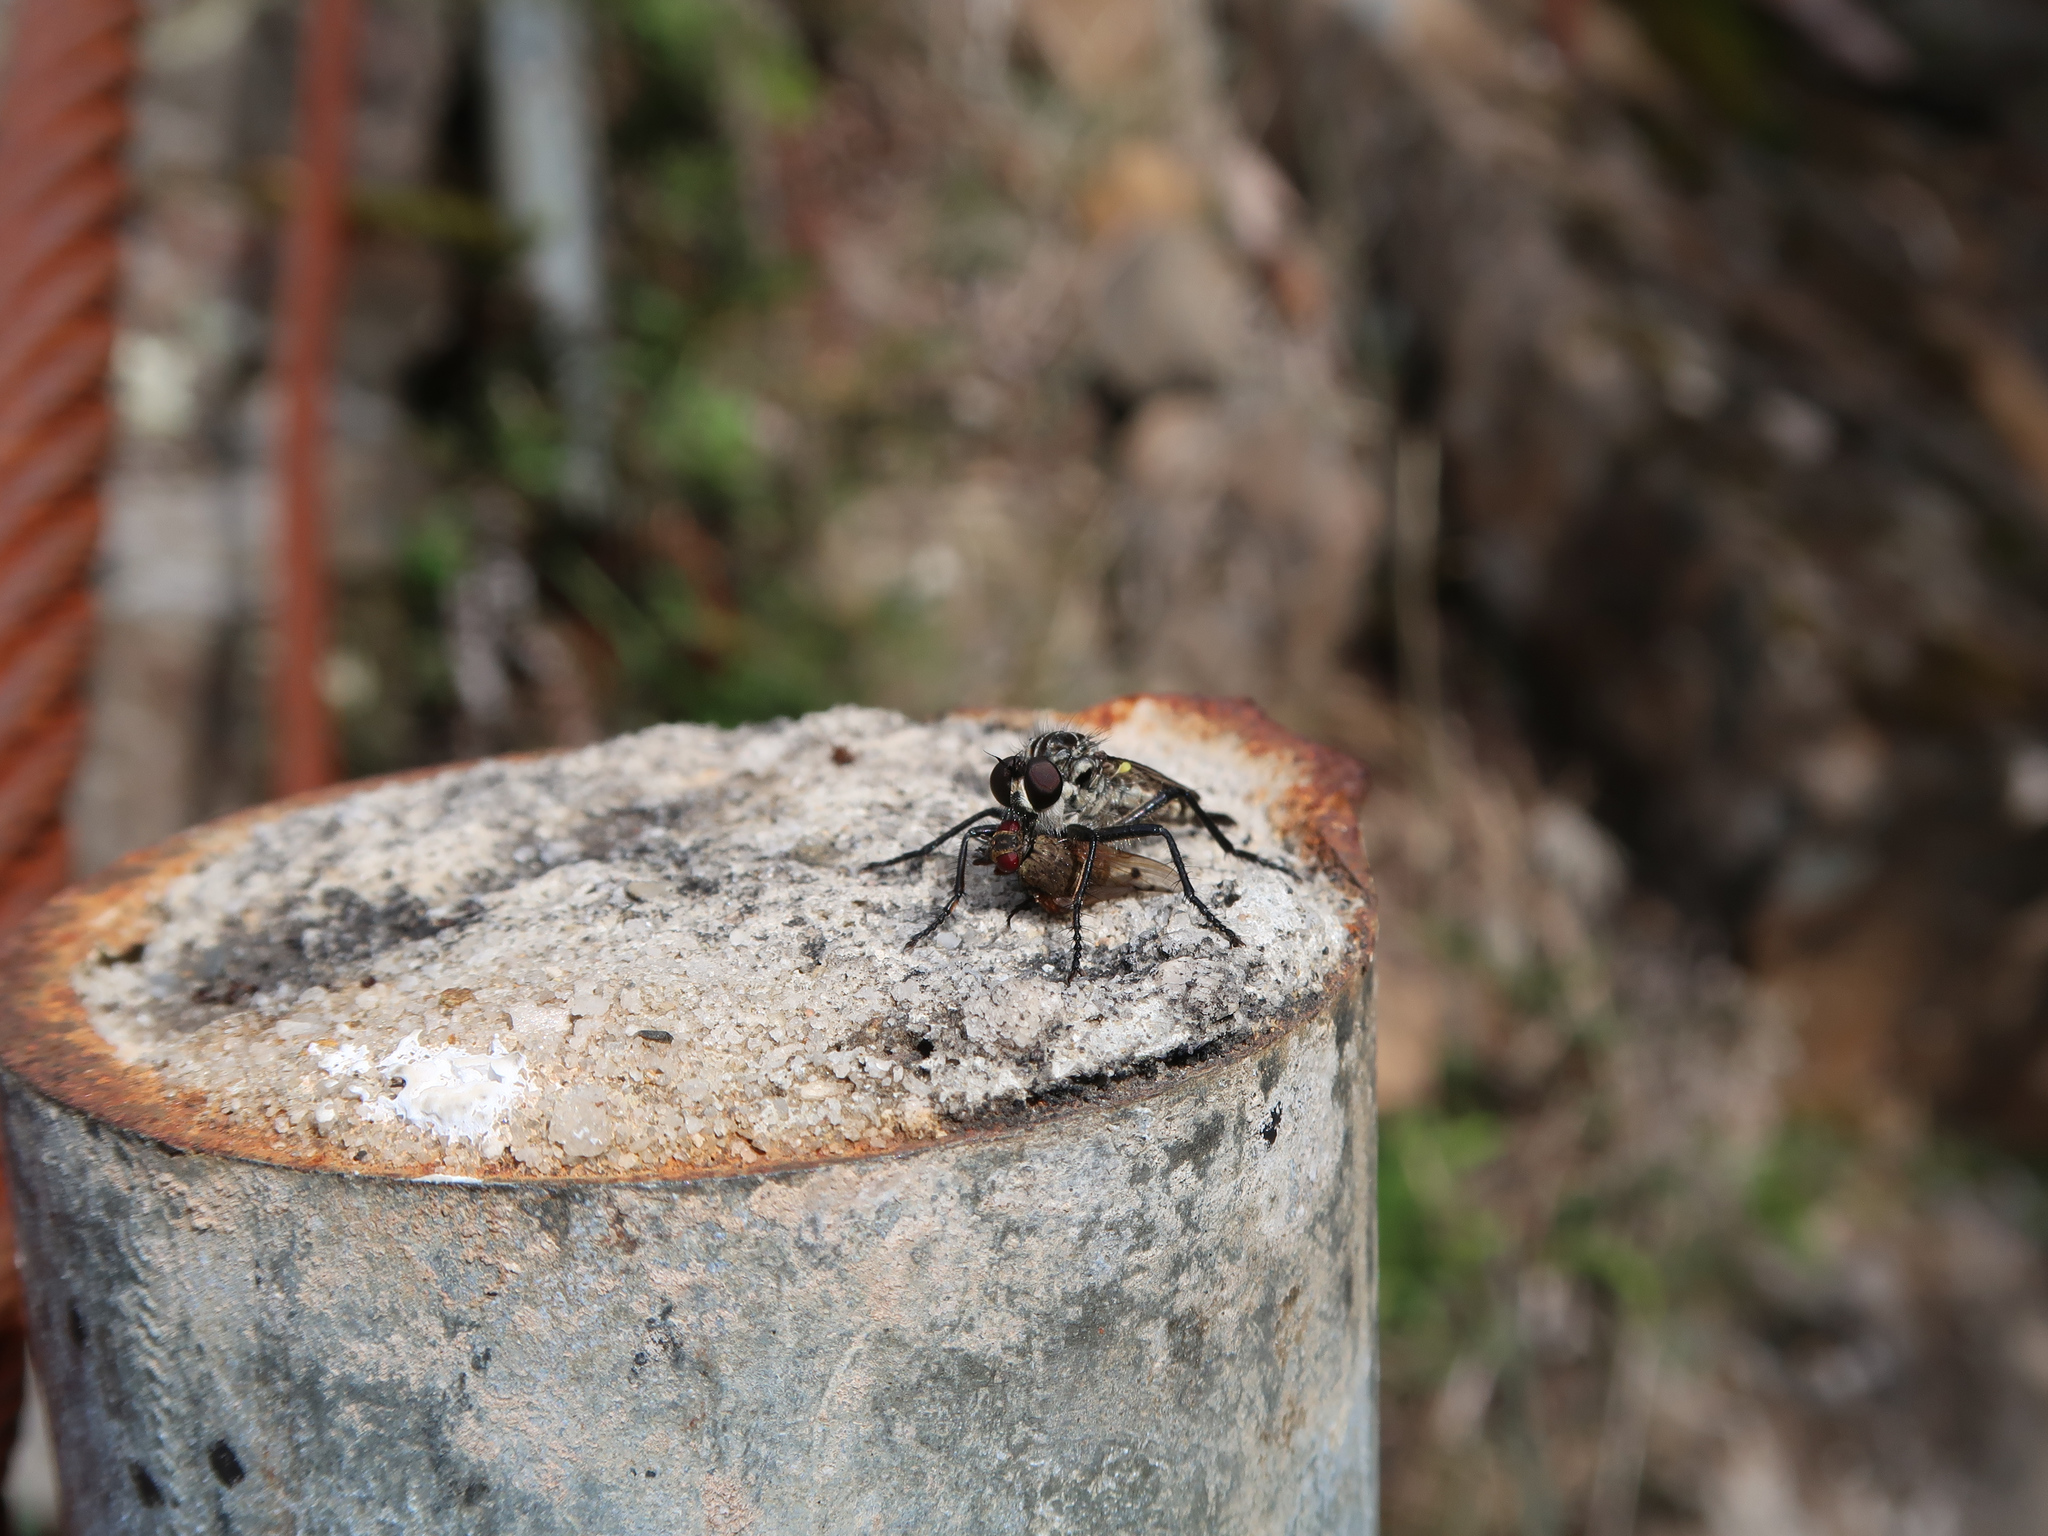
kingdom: Animalia
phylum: Arthropoda
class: Insecta
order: Diptera
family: Asilidae
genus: Cerdistus
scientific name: Cerdistus luctificus
